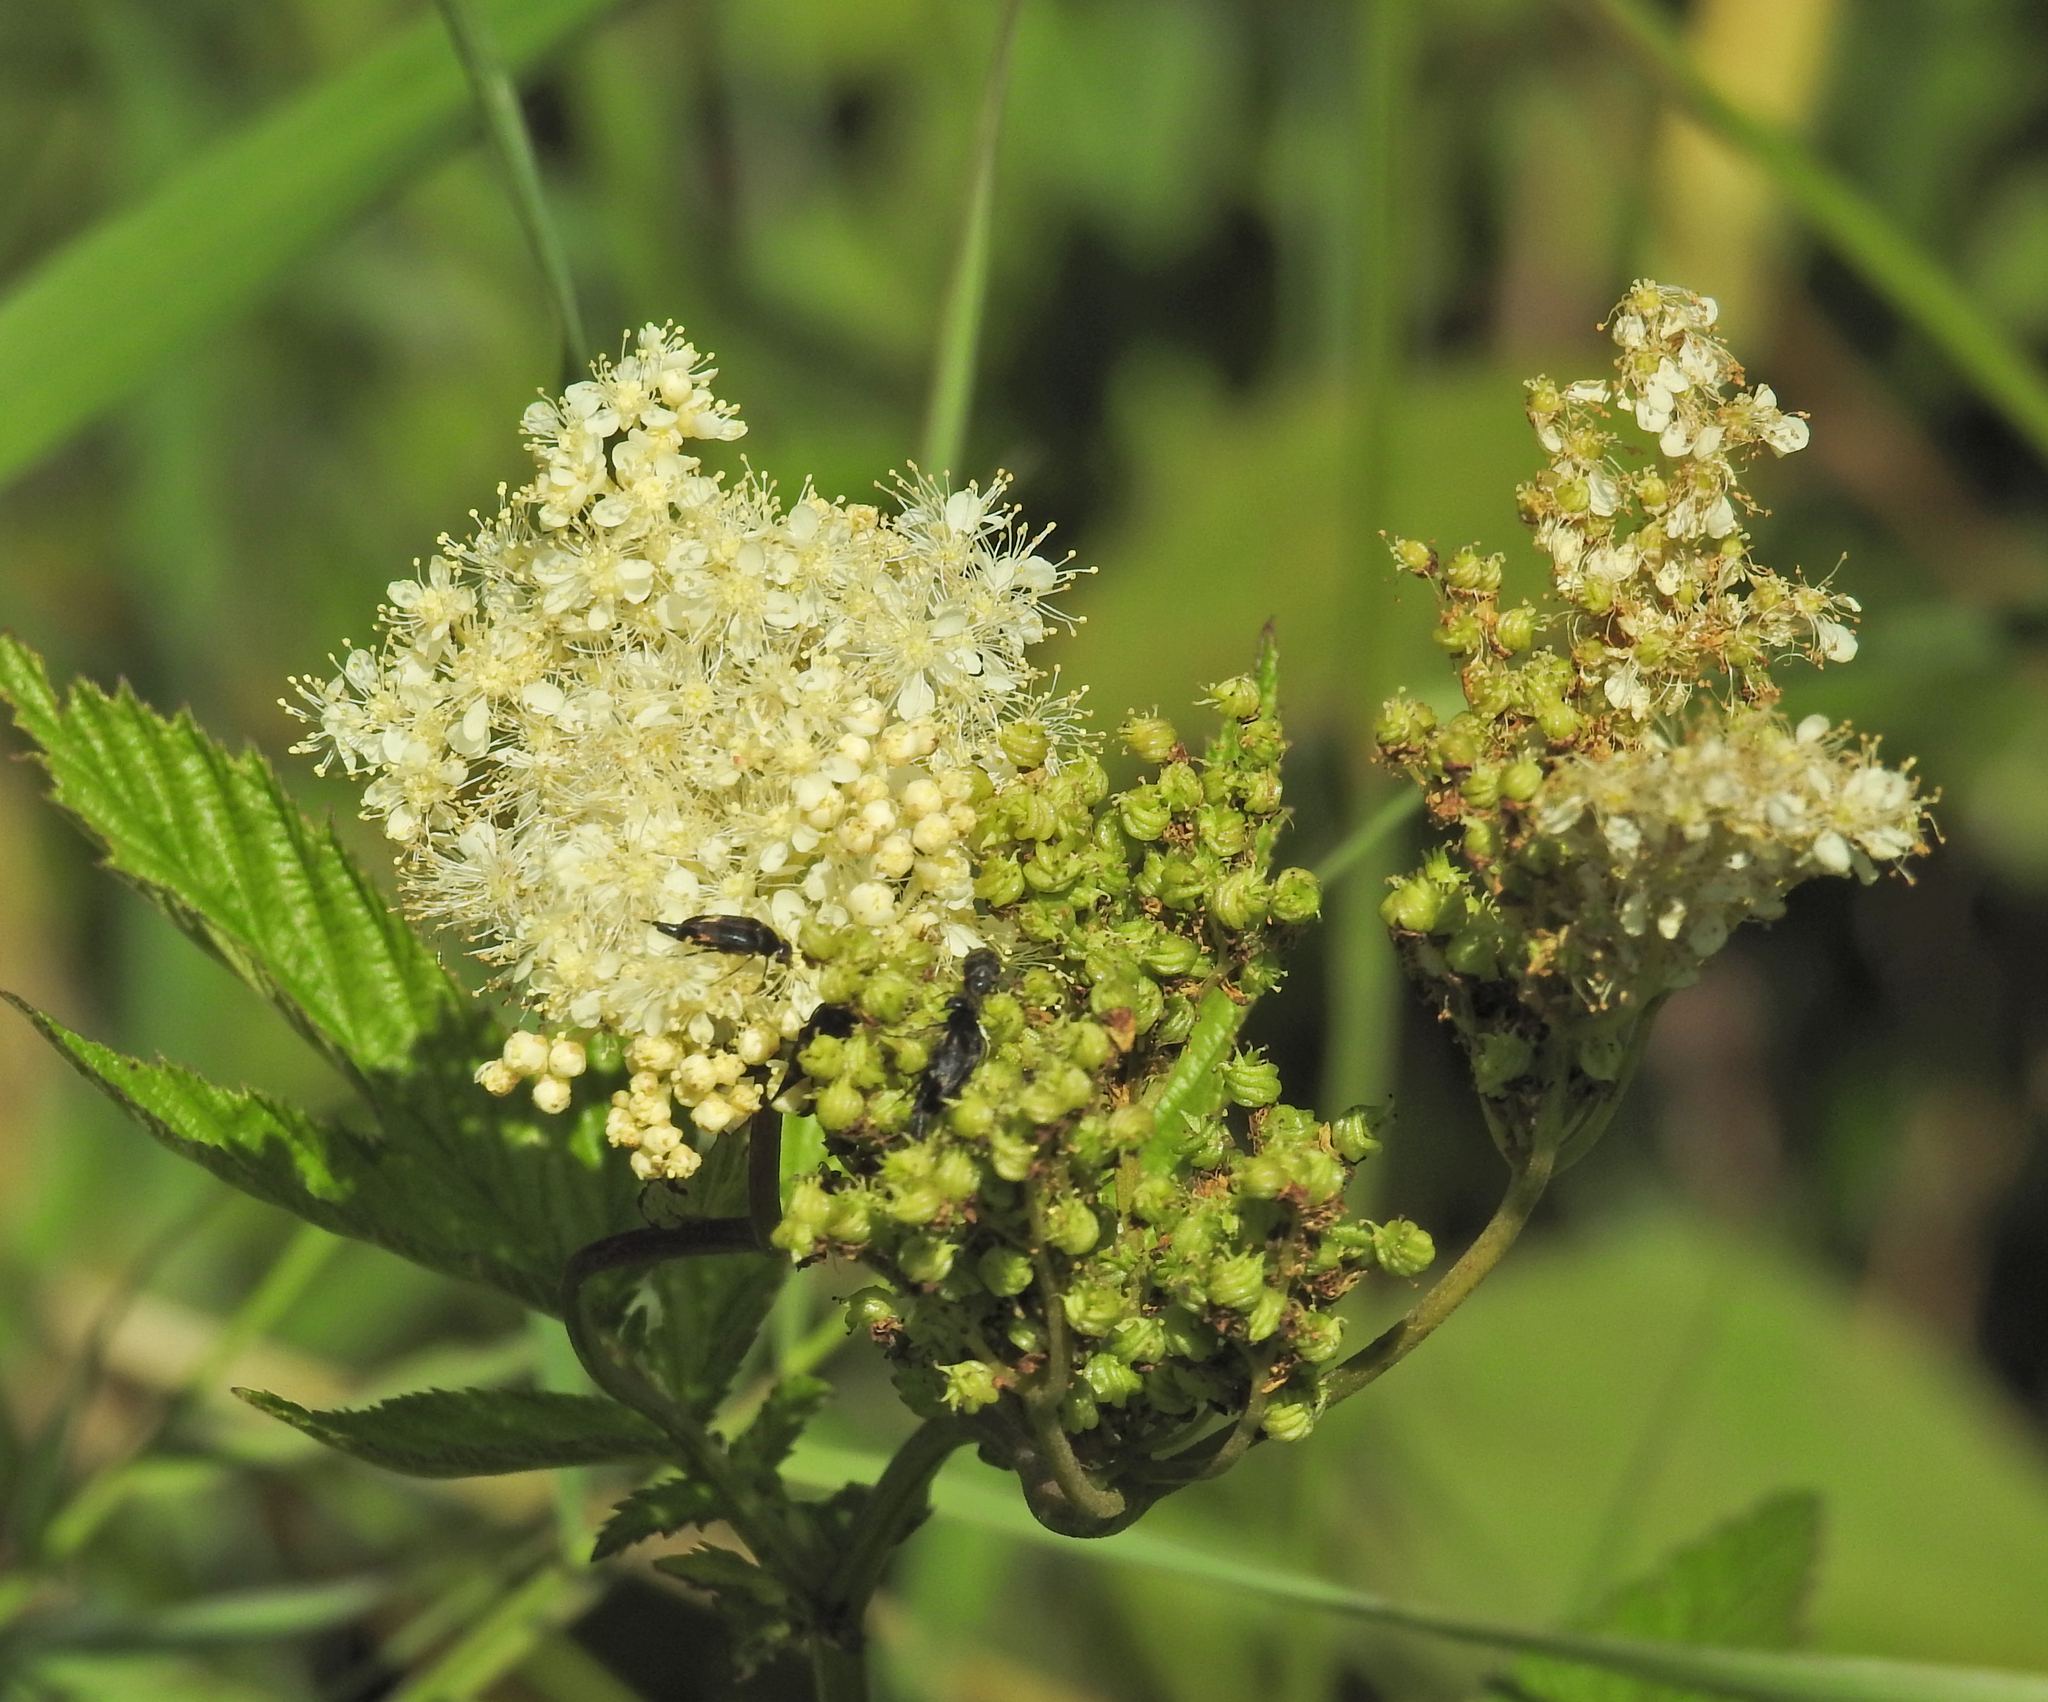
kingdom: Plantae
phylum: Tracheophyta
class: Magnoliopsida
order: Rosales
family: Rosaceae
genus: Filipendula
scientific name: Filipendula ulmaria
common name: Meadowsweet
